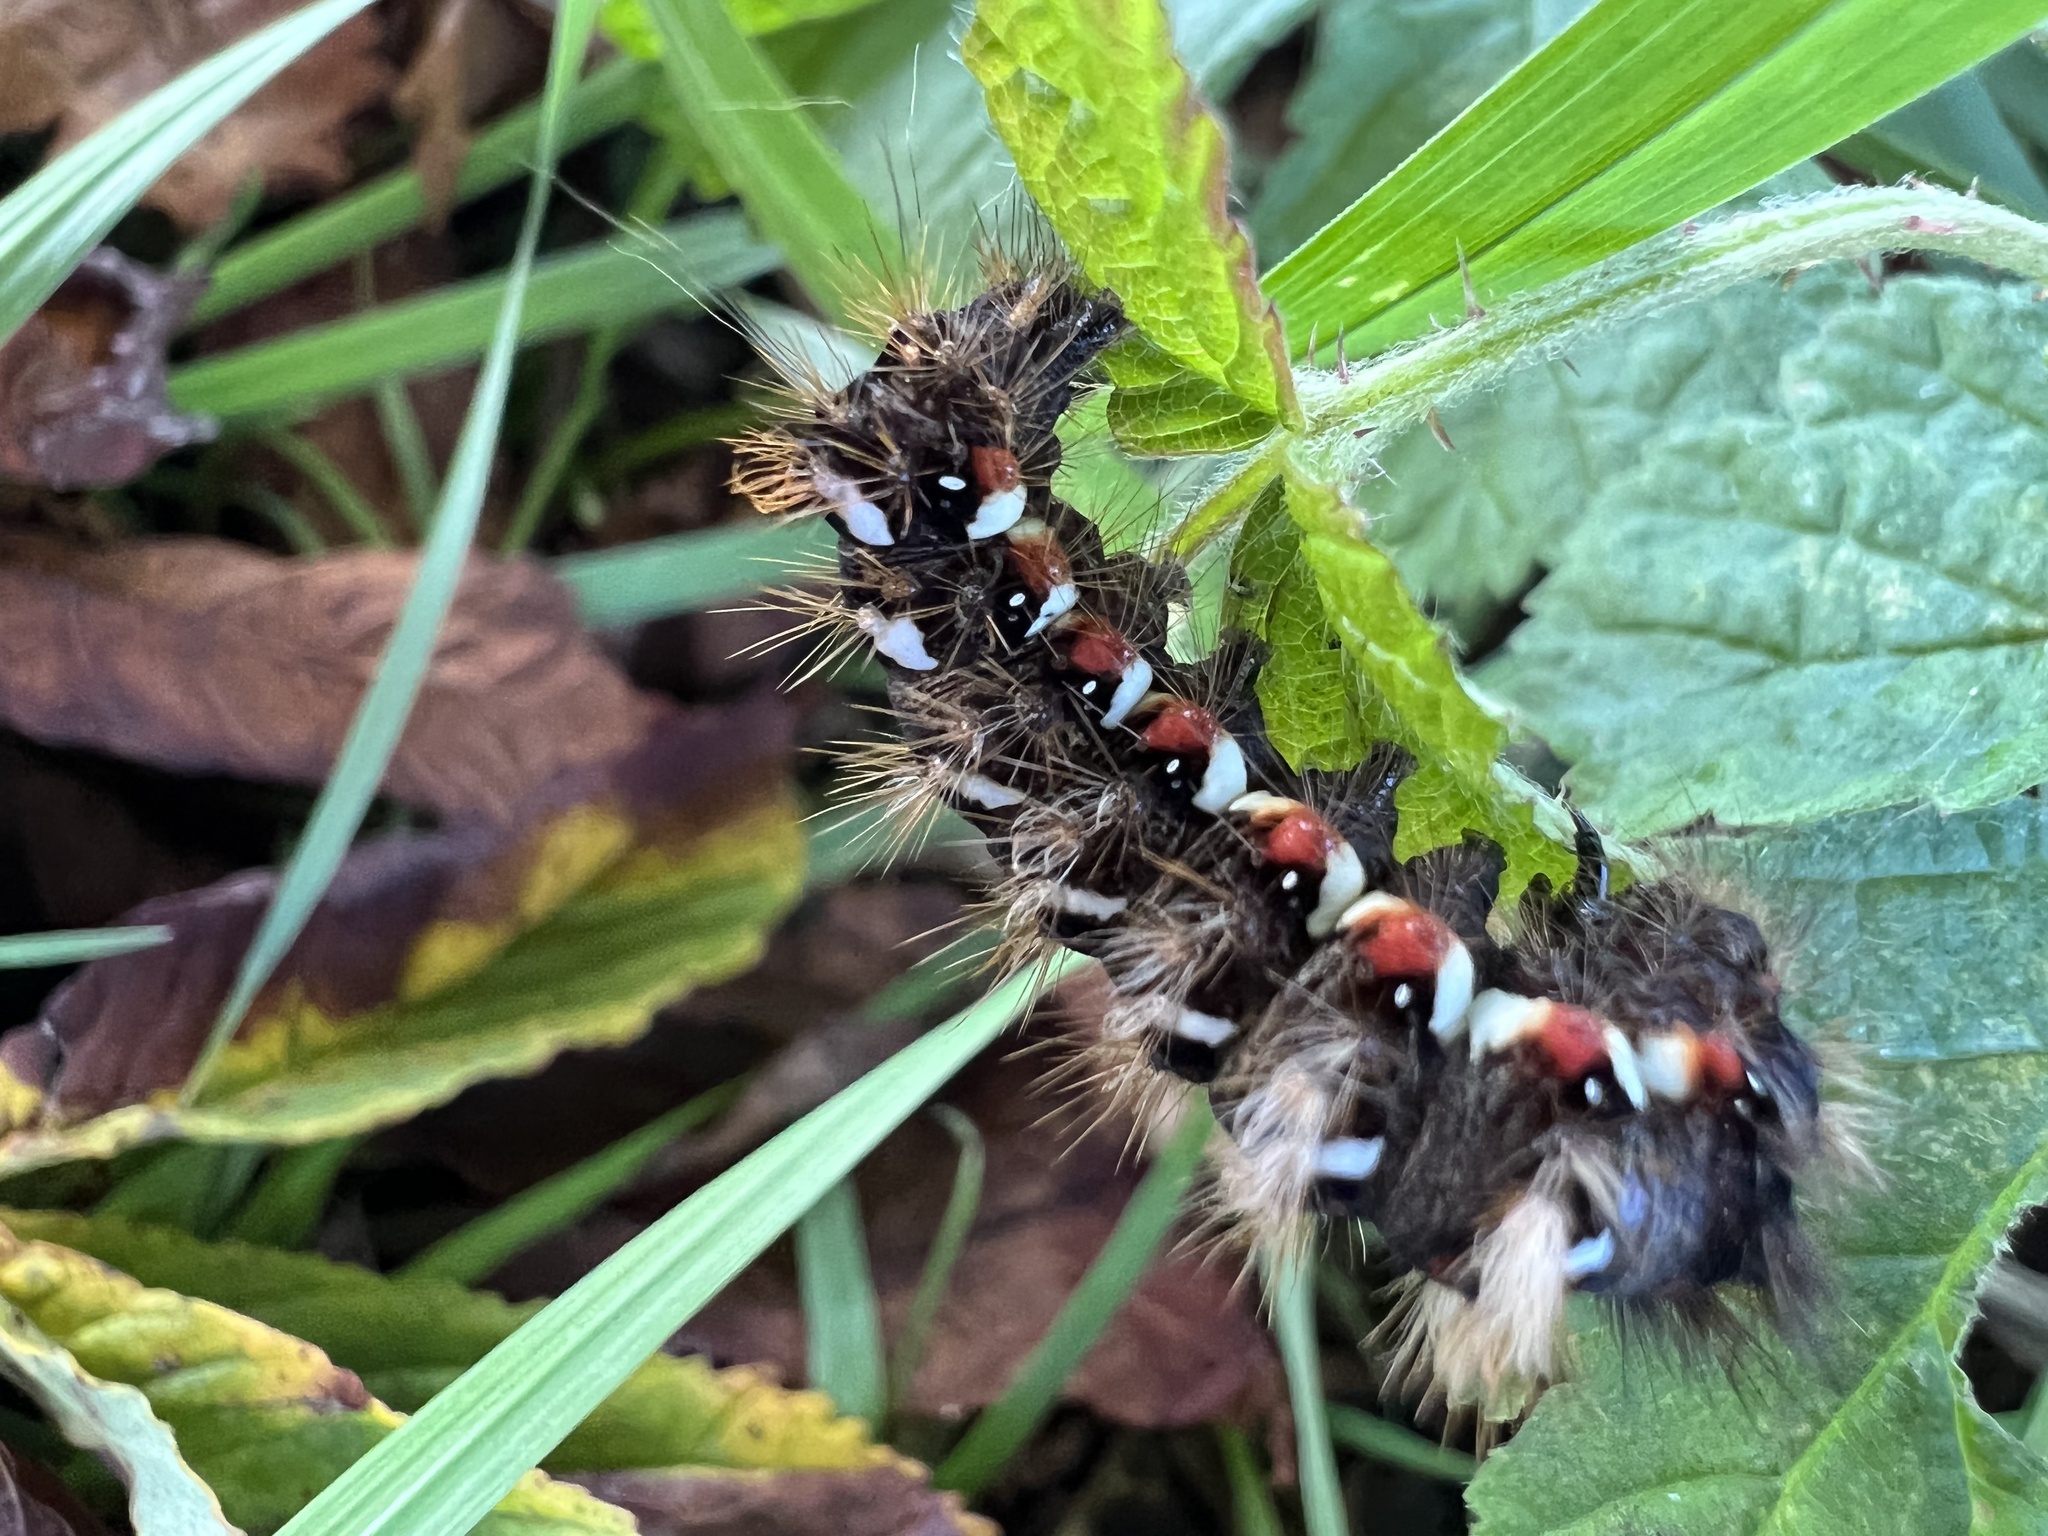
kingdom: Animalia
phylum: Arthropoda
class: Insecta
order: Lepidoptera
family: Noctuidae
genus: Acronicta
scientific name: Acronicta rumicis
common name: Knot grass
